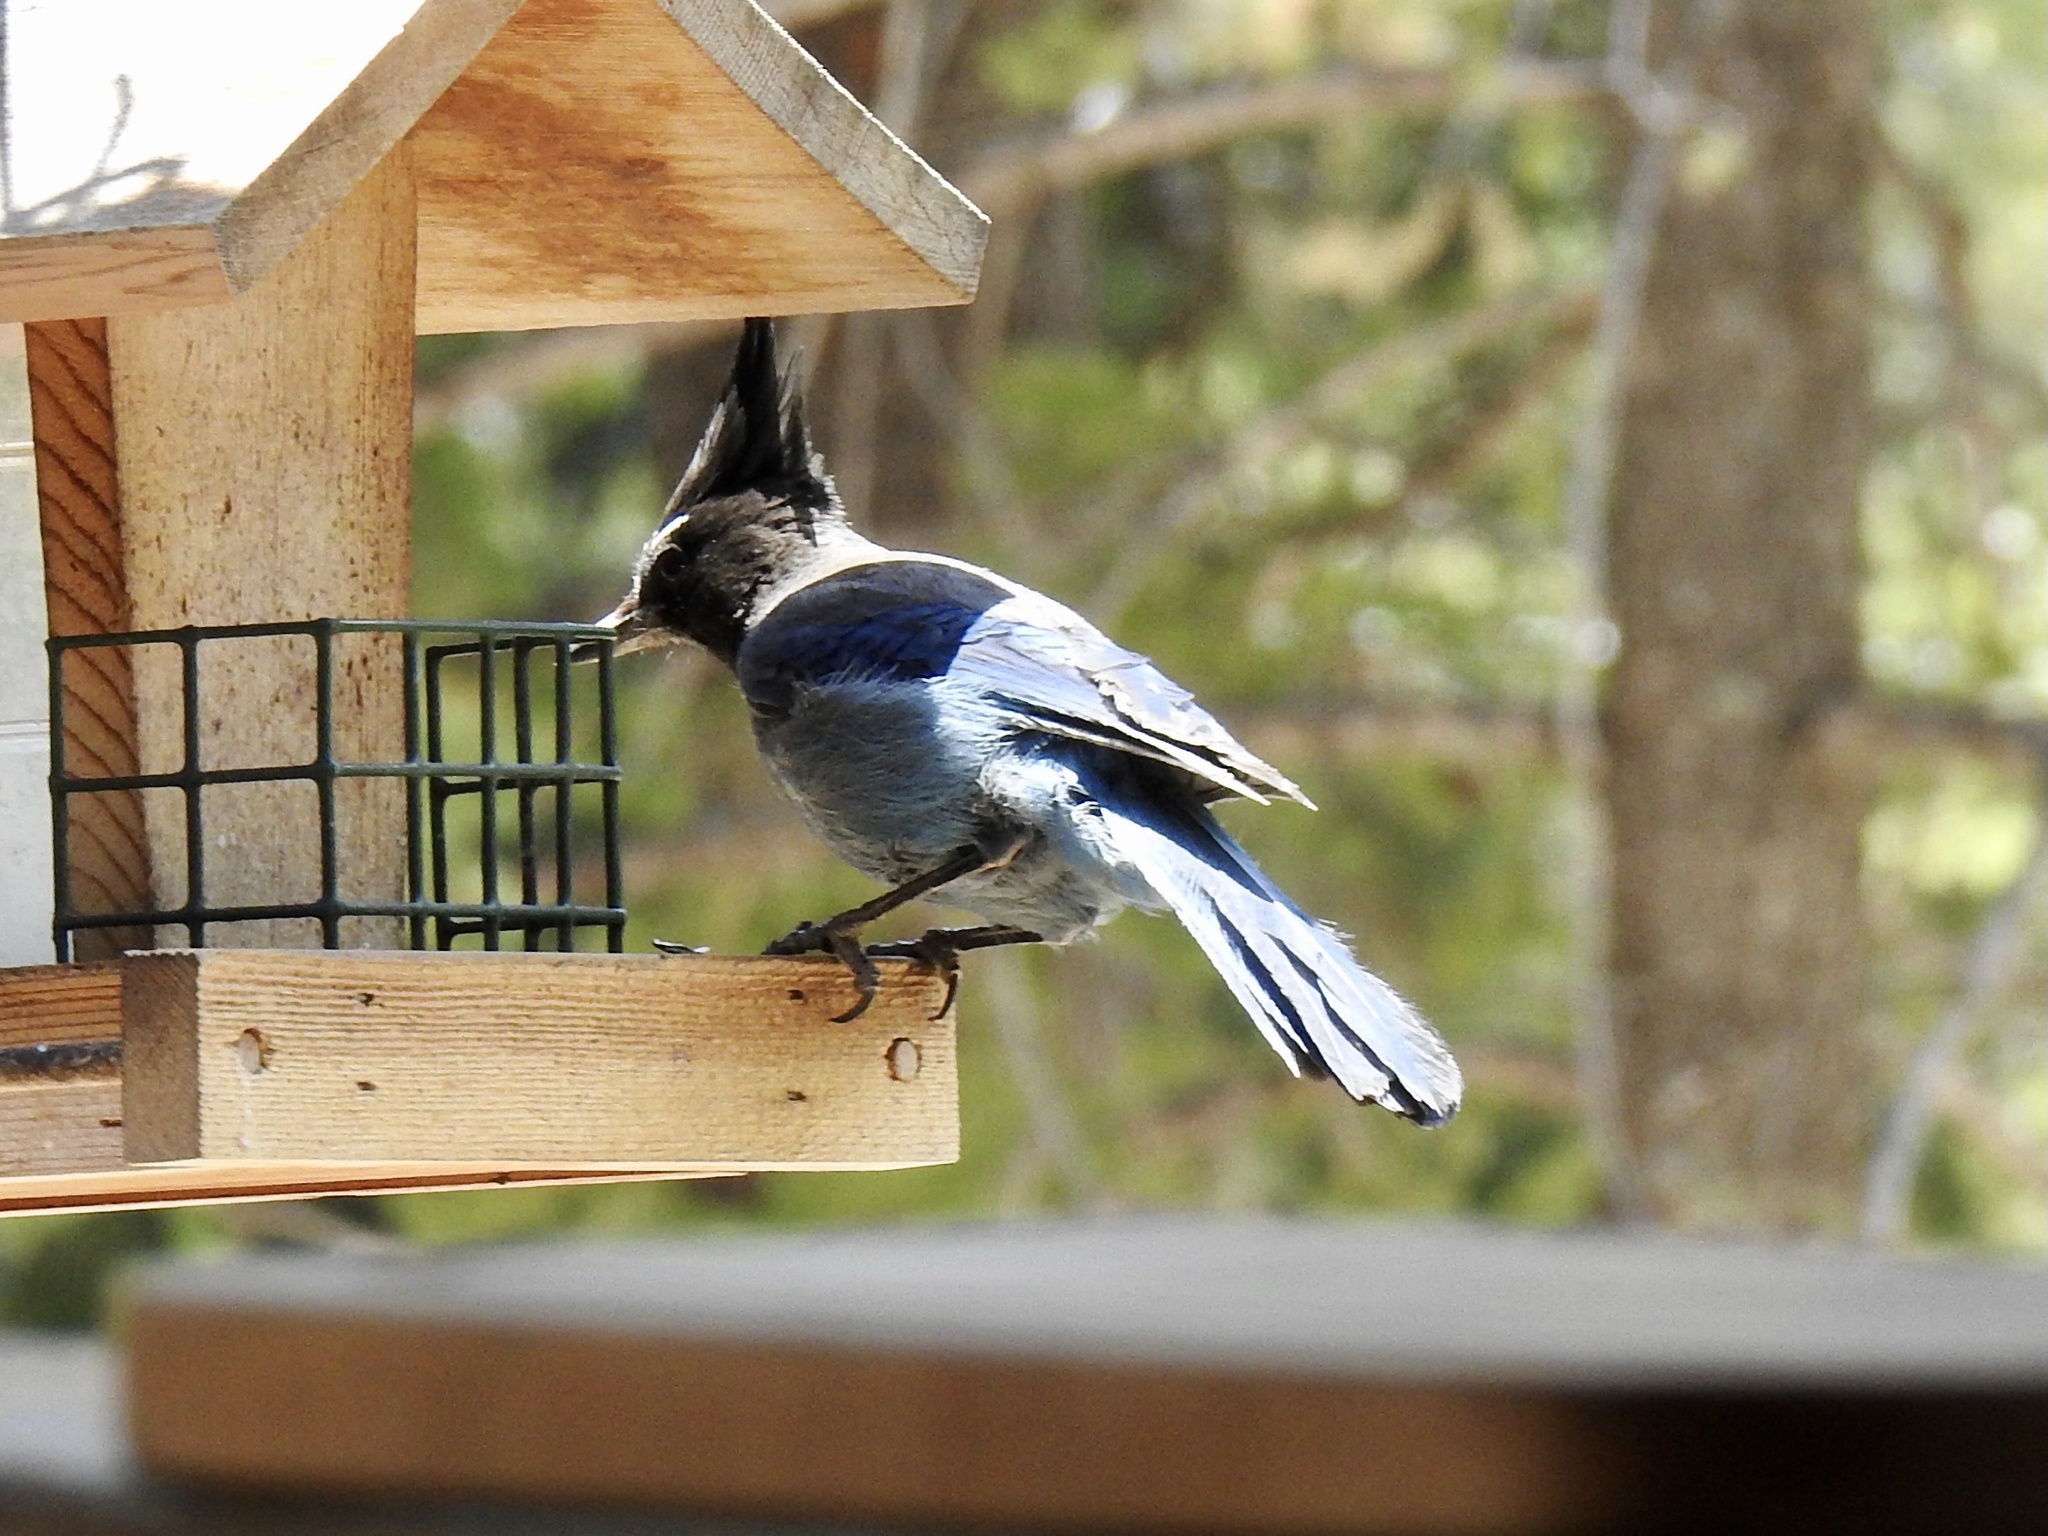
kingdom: Animalia
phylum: Chordata
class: Aves
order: Passeriformes
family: Corvidae
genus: Cyanocitta
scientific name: Cyanocitta stelleri
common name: Steller's jay
